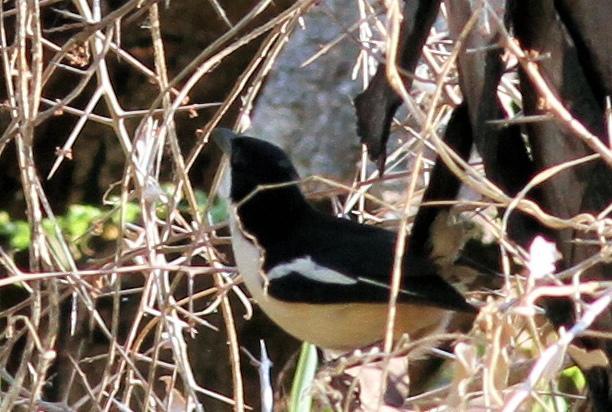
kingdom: Animalia
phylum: Chordata
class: Aves
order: Passeriformes
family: Malaconotidae
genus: Laniarius
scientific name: Laniarius major
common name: Tropical boubou
